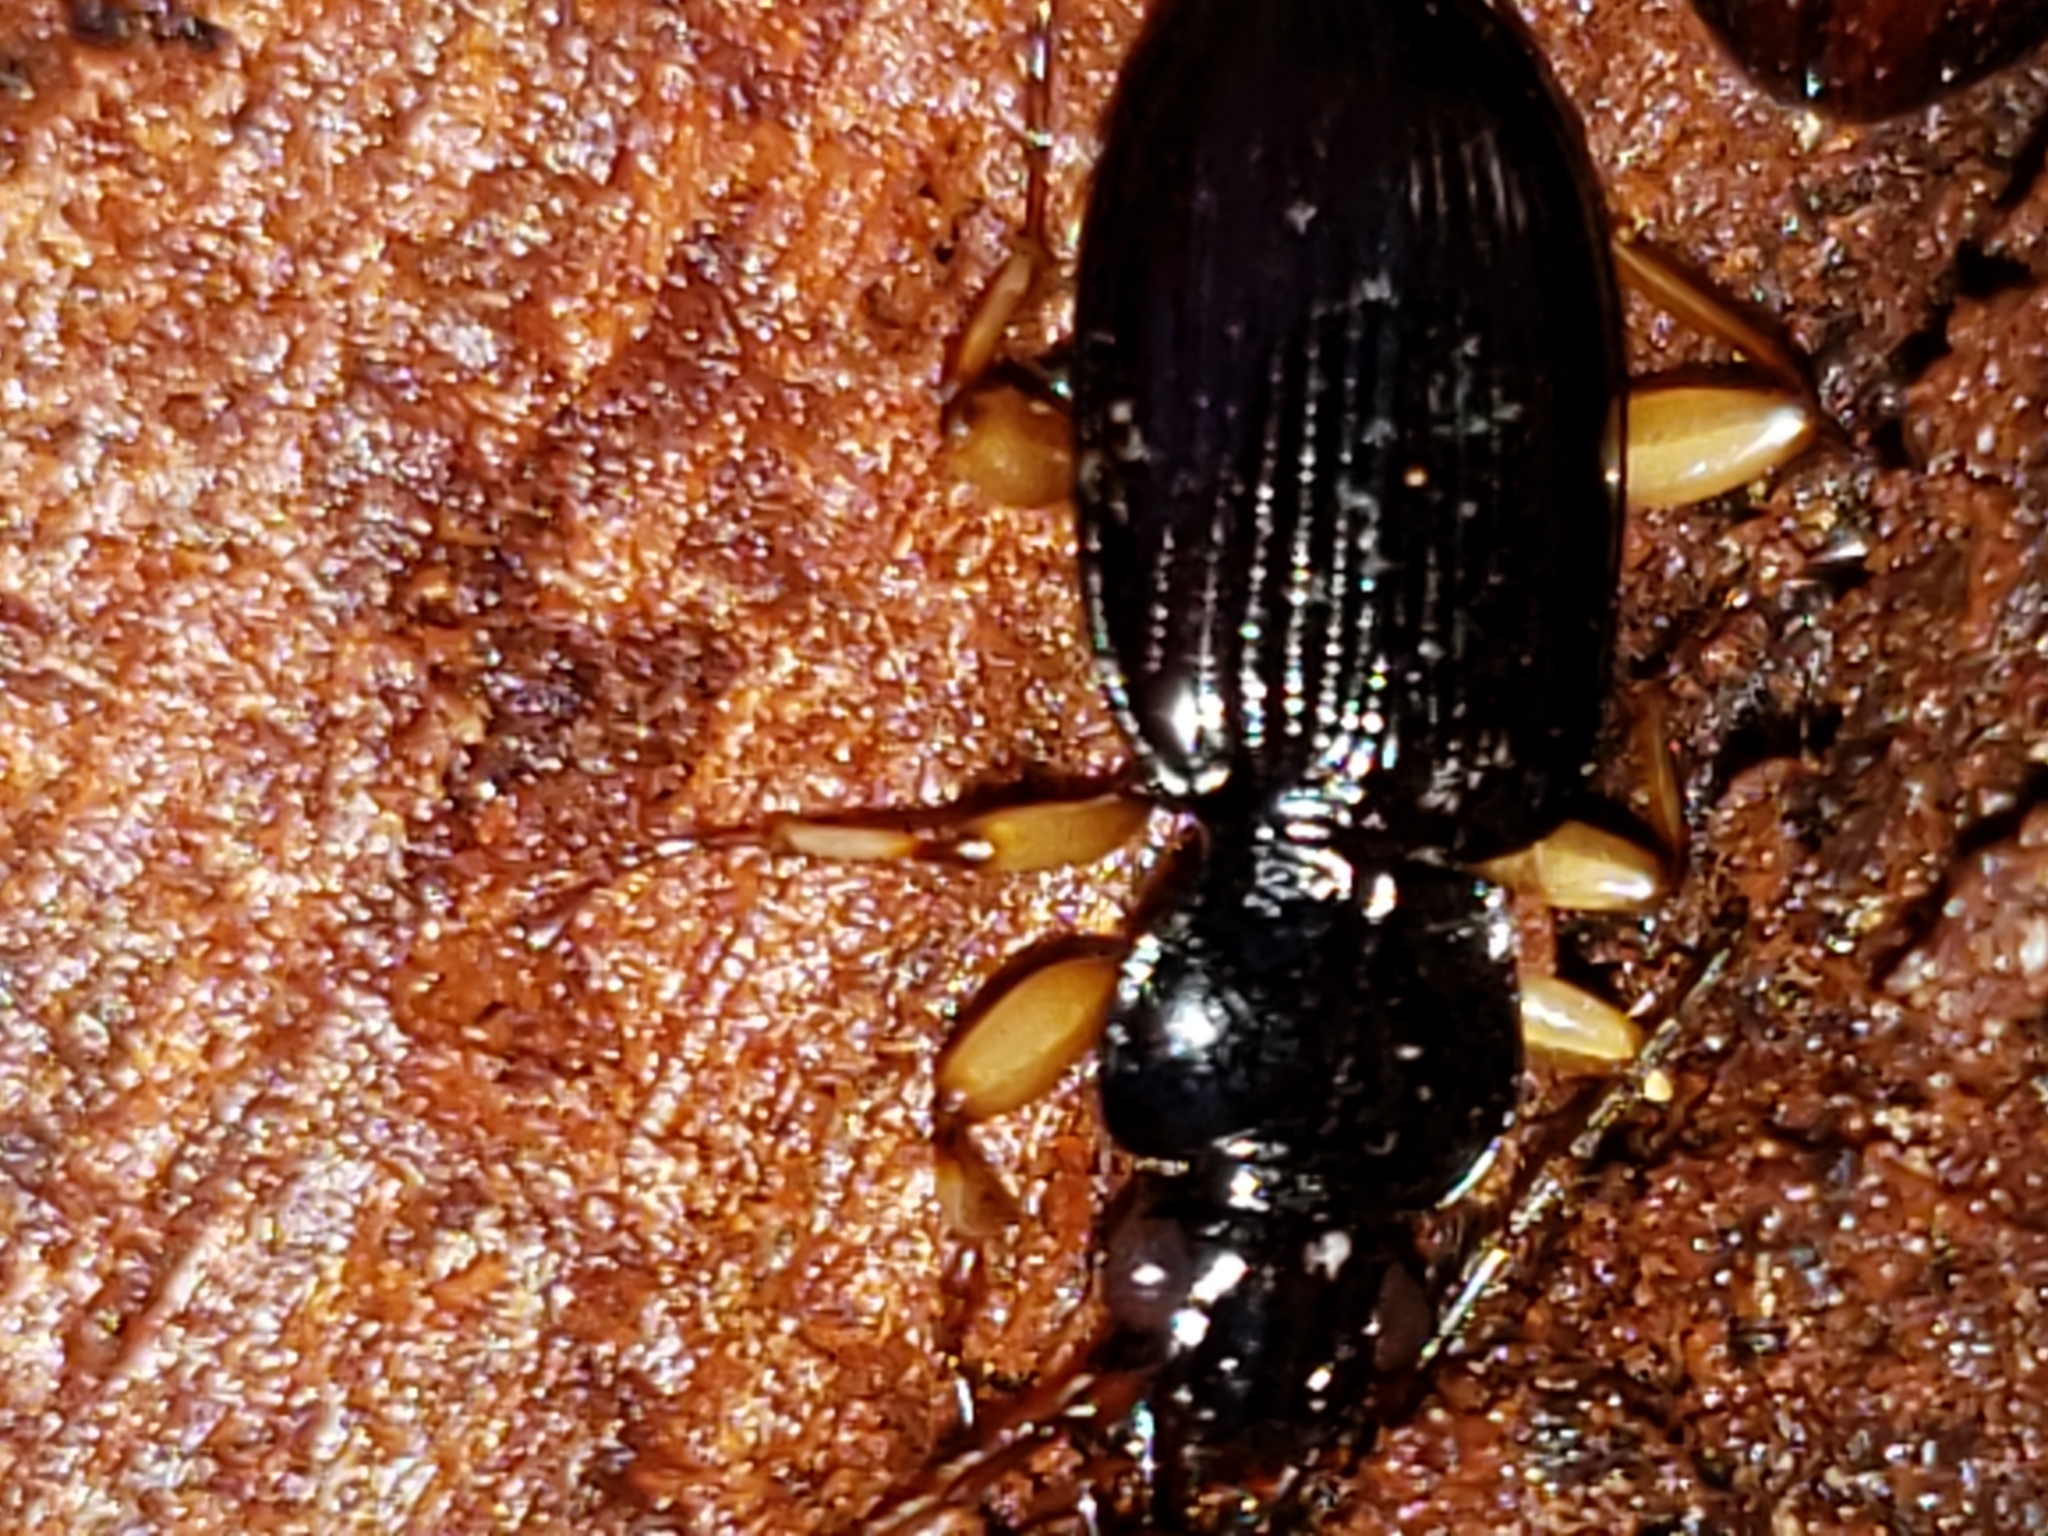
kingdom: Animalia
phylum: Arthropoda
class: Insecta
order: Coleoptera
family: Carabidae
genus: Patrobus
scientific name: Patrobus longicornis
